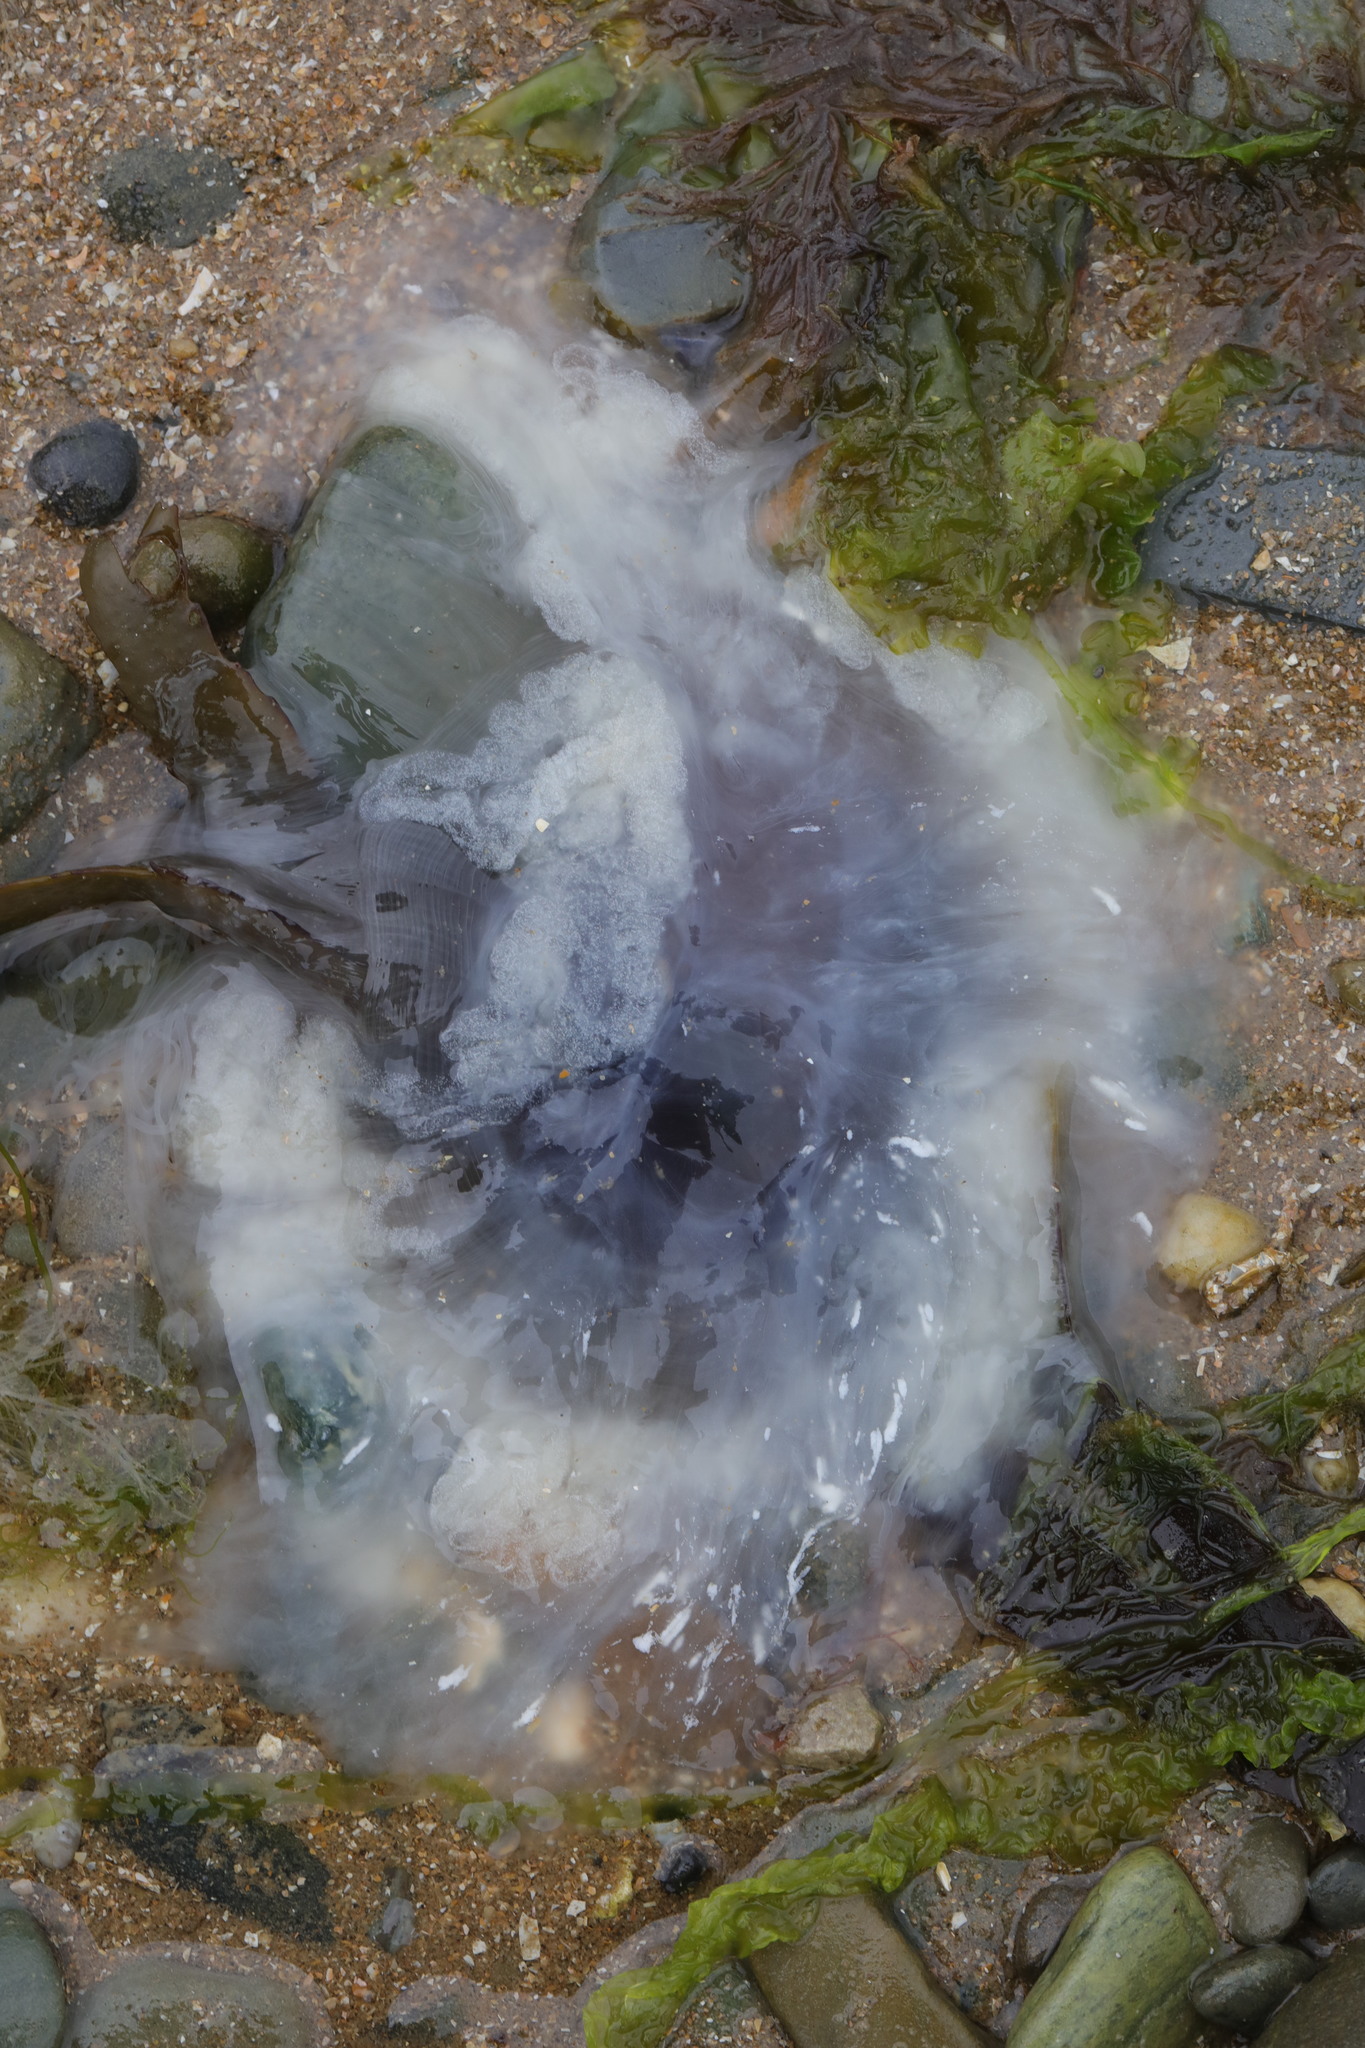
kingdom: Animalia
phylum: Cnidaria
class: Scyphozoa
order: Semaeostomeae
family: Cyaneidae
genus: Cyanea
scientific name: Cyanea lamarckii
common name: Blue jellyfish
